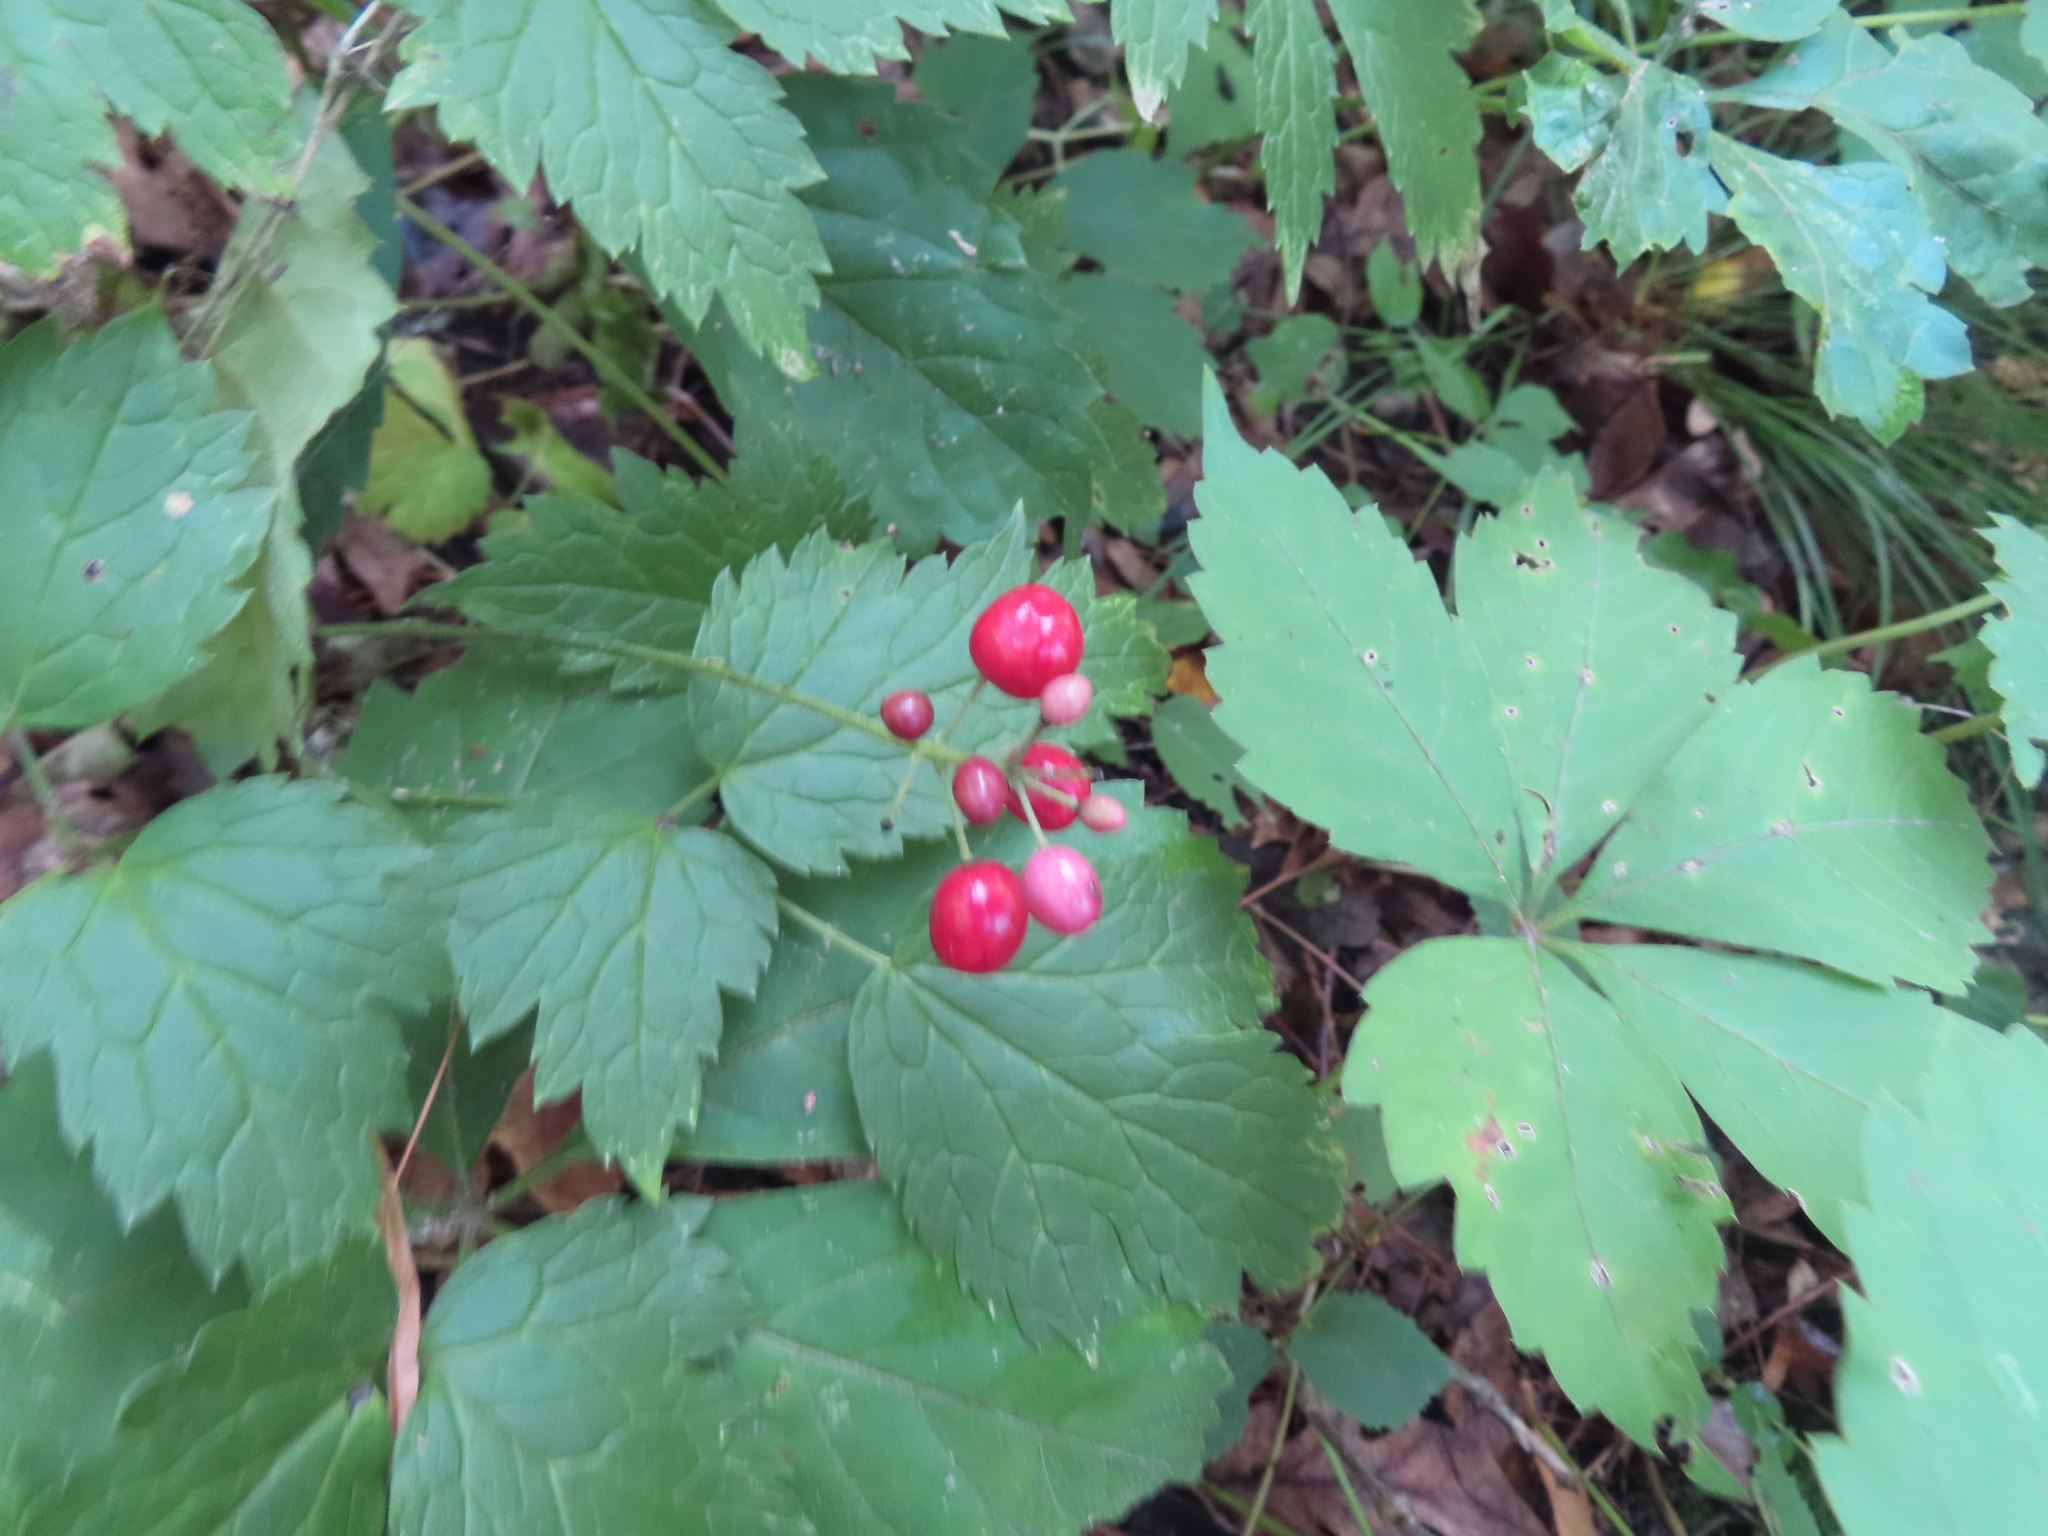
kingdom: Plantae
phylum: Tracheophyta
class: Magnoliopsida
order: Ranunculales
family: Ranunculaceae
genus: Actaea
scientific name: Actaea rubra
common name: Red baneberry
